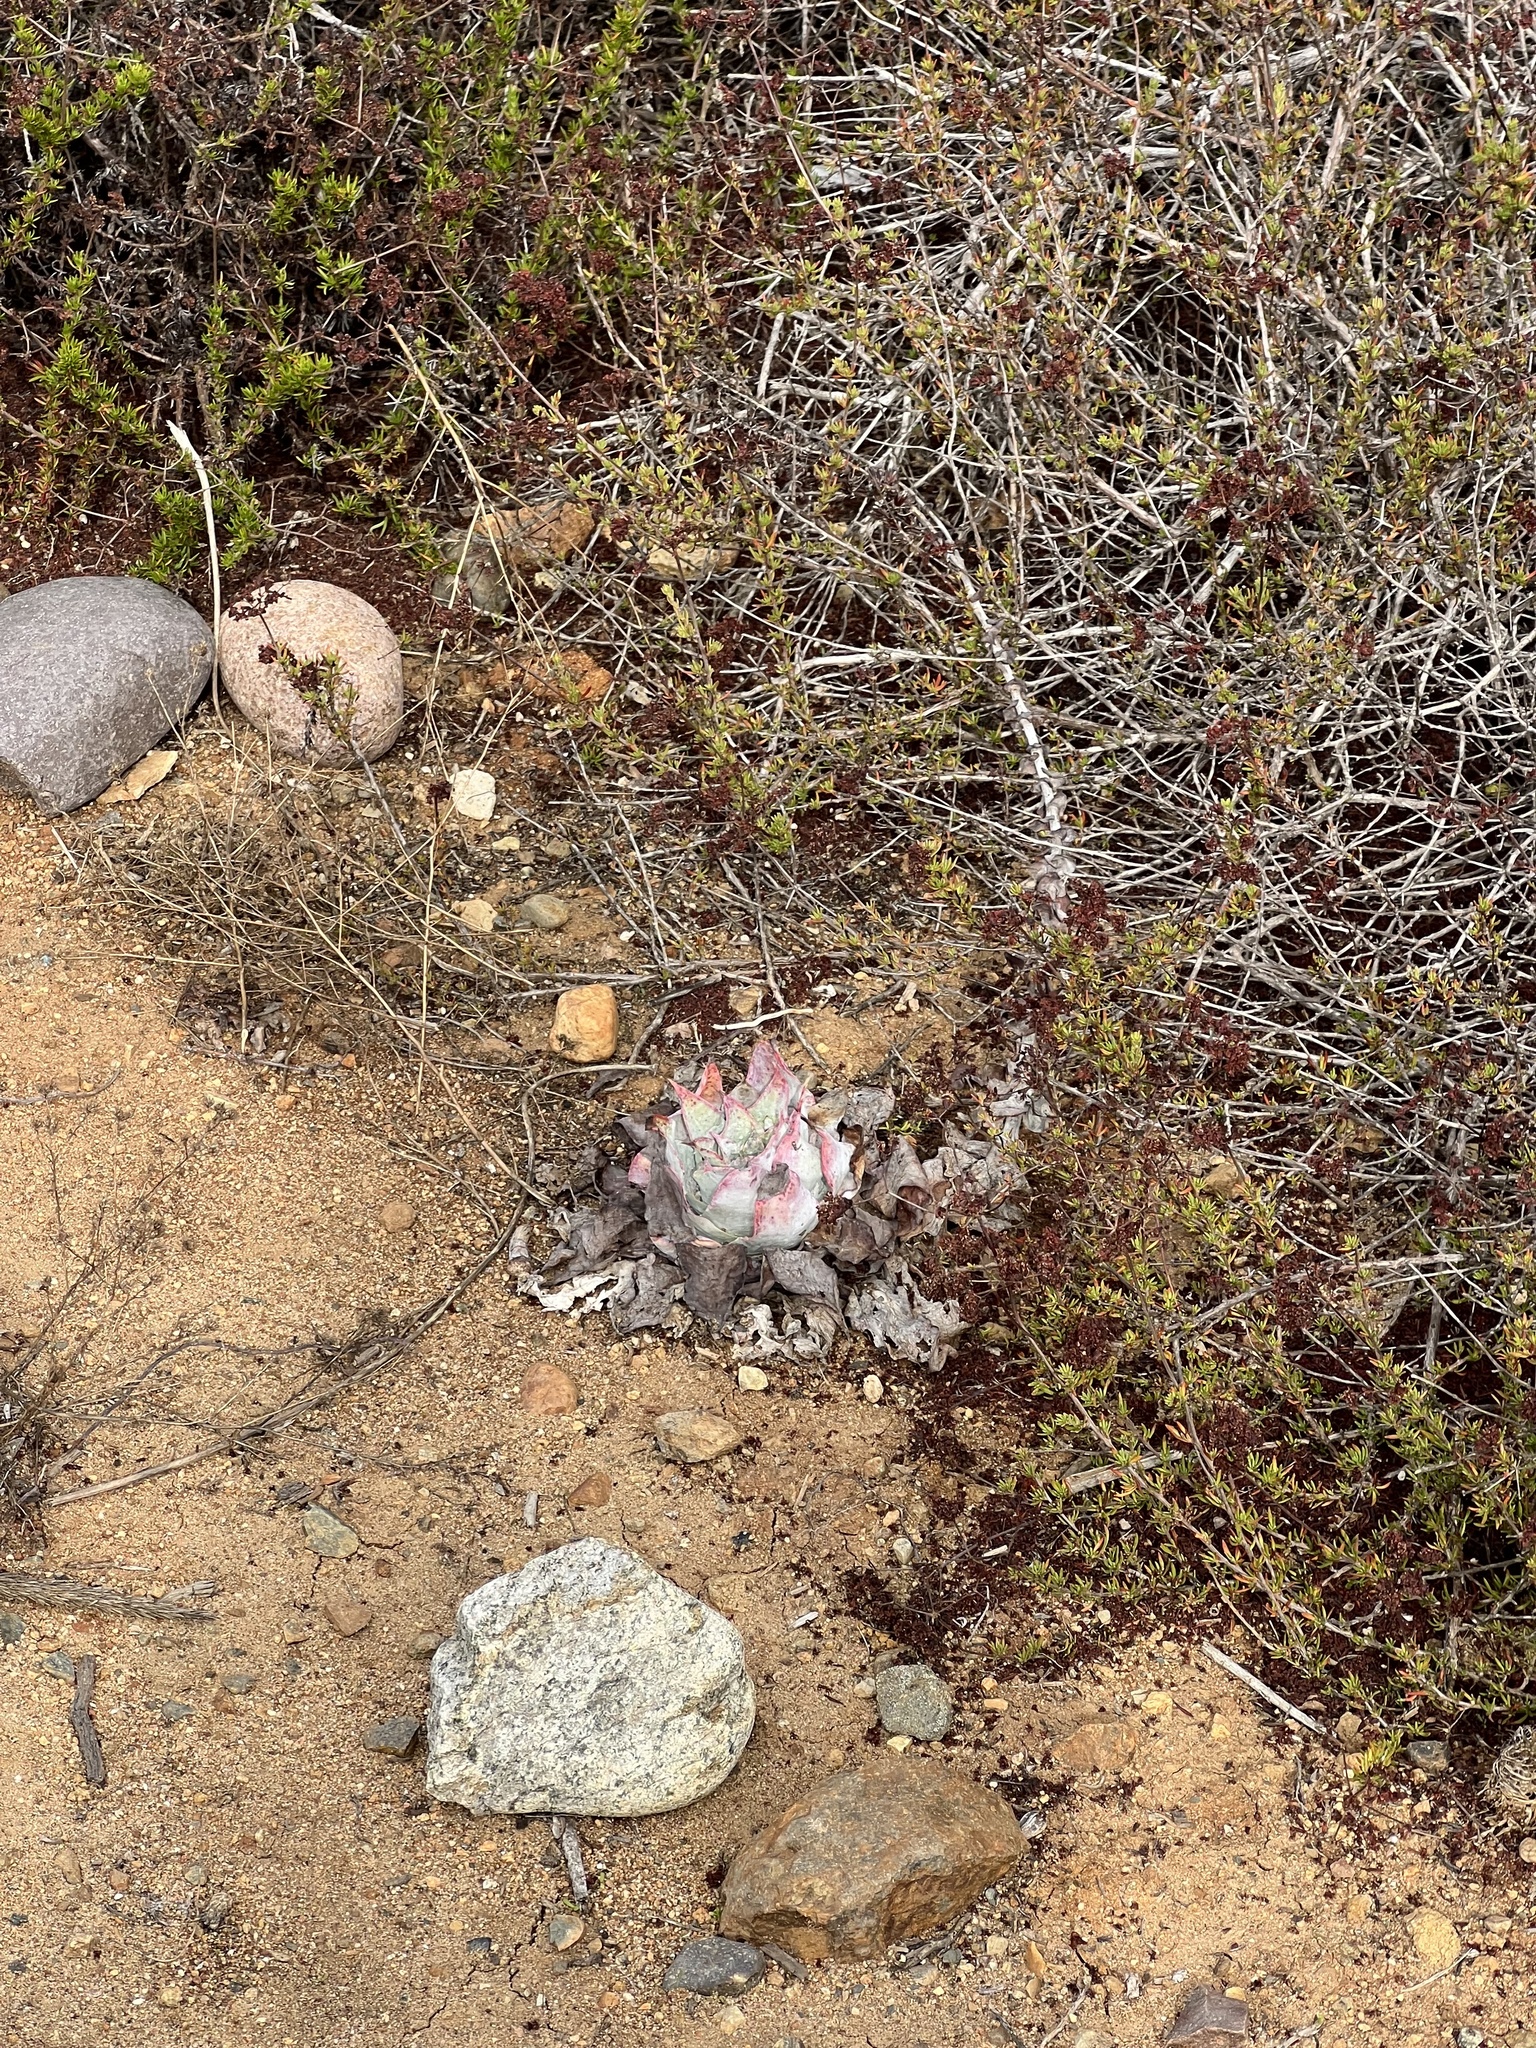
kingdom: Plantae
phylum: Tracheophyta
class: Magnoliopsida
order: Saxifragales
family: Crassulaceae
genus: Dudleya
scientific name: Dudleya pulverulenta
